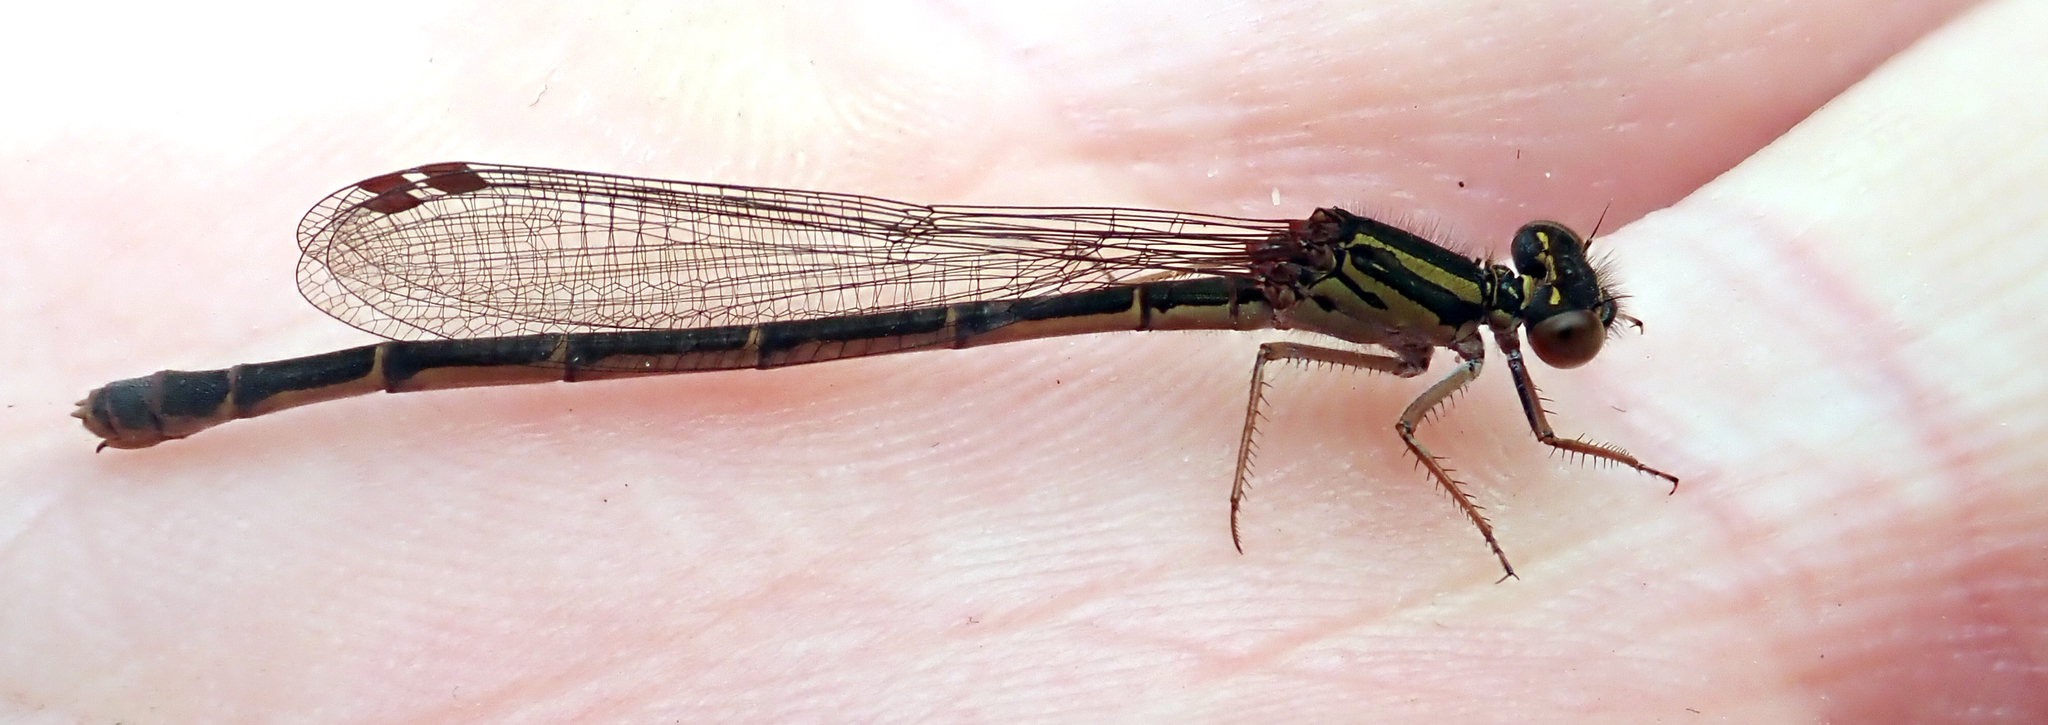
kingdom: Animalia
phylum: Arthropoda
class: Insecta
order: Odonata
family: Coenagrionidae
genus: Xanthocnemis
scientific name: Xanthocnemis tuanuii
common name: Chatham redcoat damselfly
